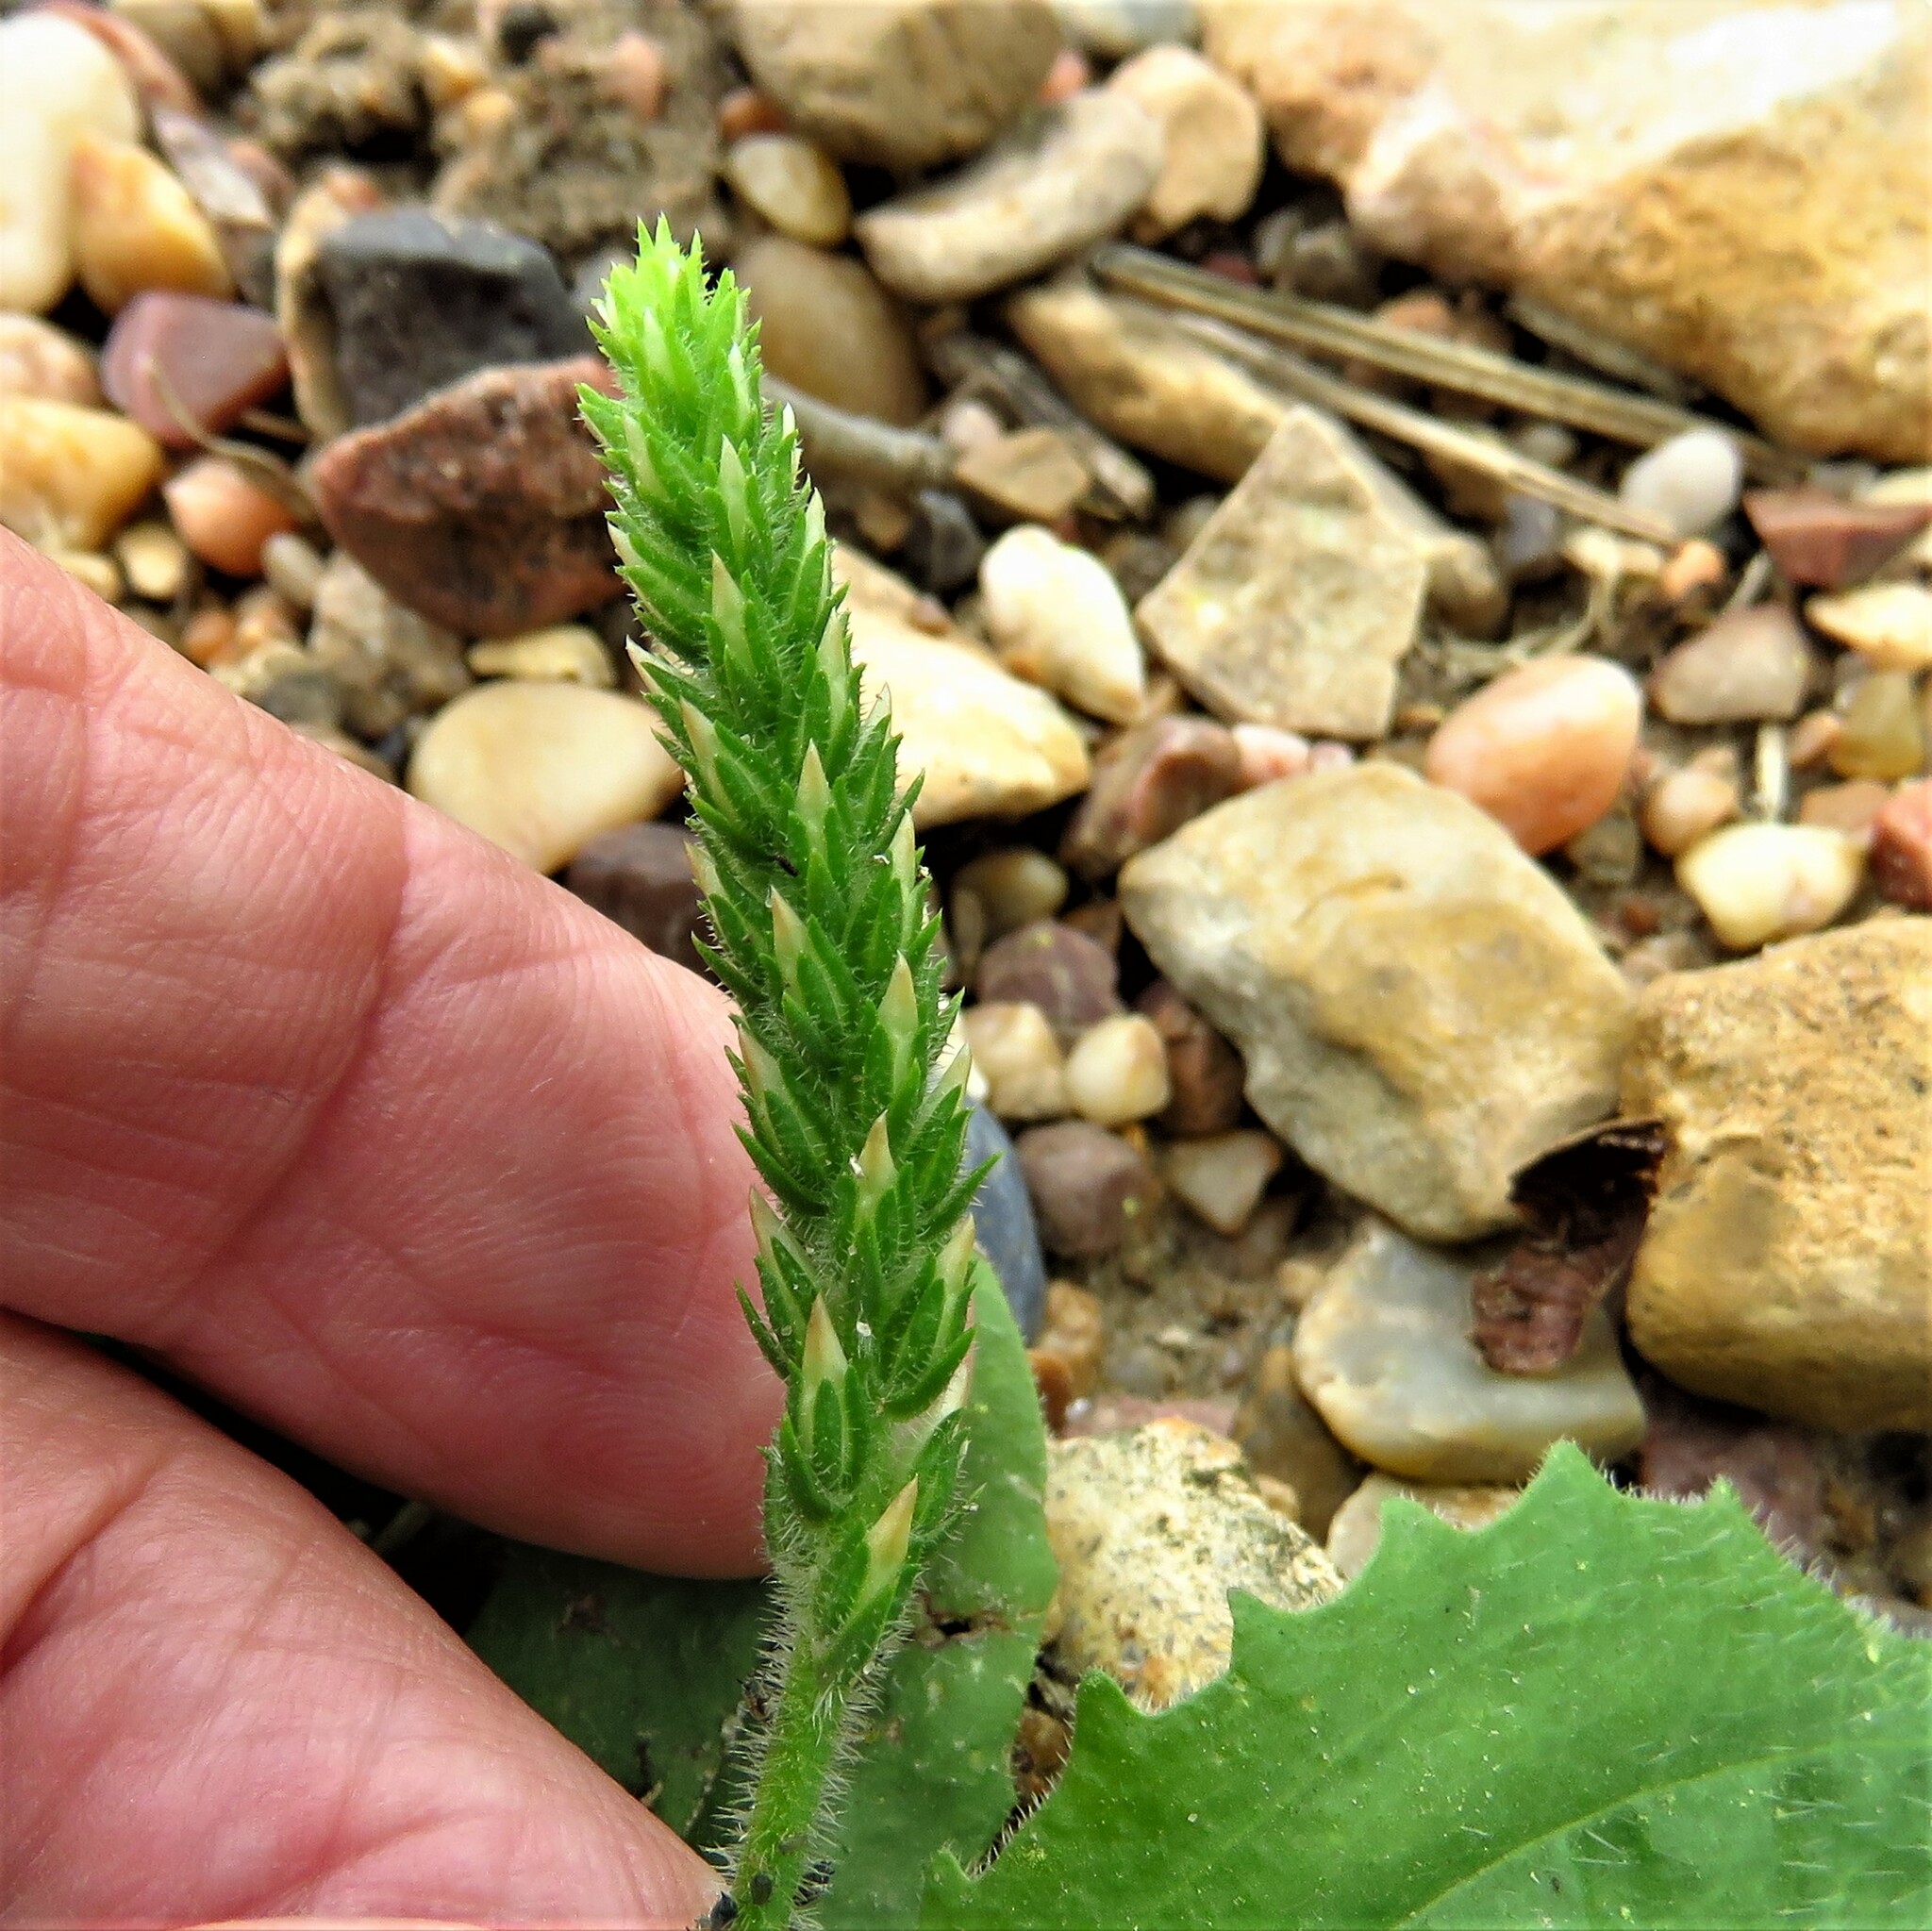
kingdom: Plantae
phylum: Tracheophyta
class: Magnoliopsida
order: Lamiales
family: Plantaginaceae
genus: Plantago
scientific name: Plantago rhodosperma
